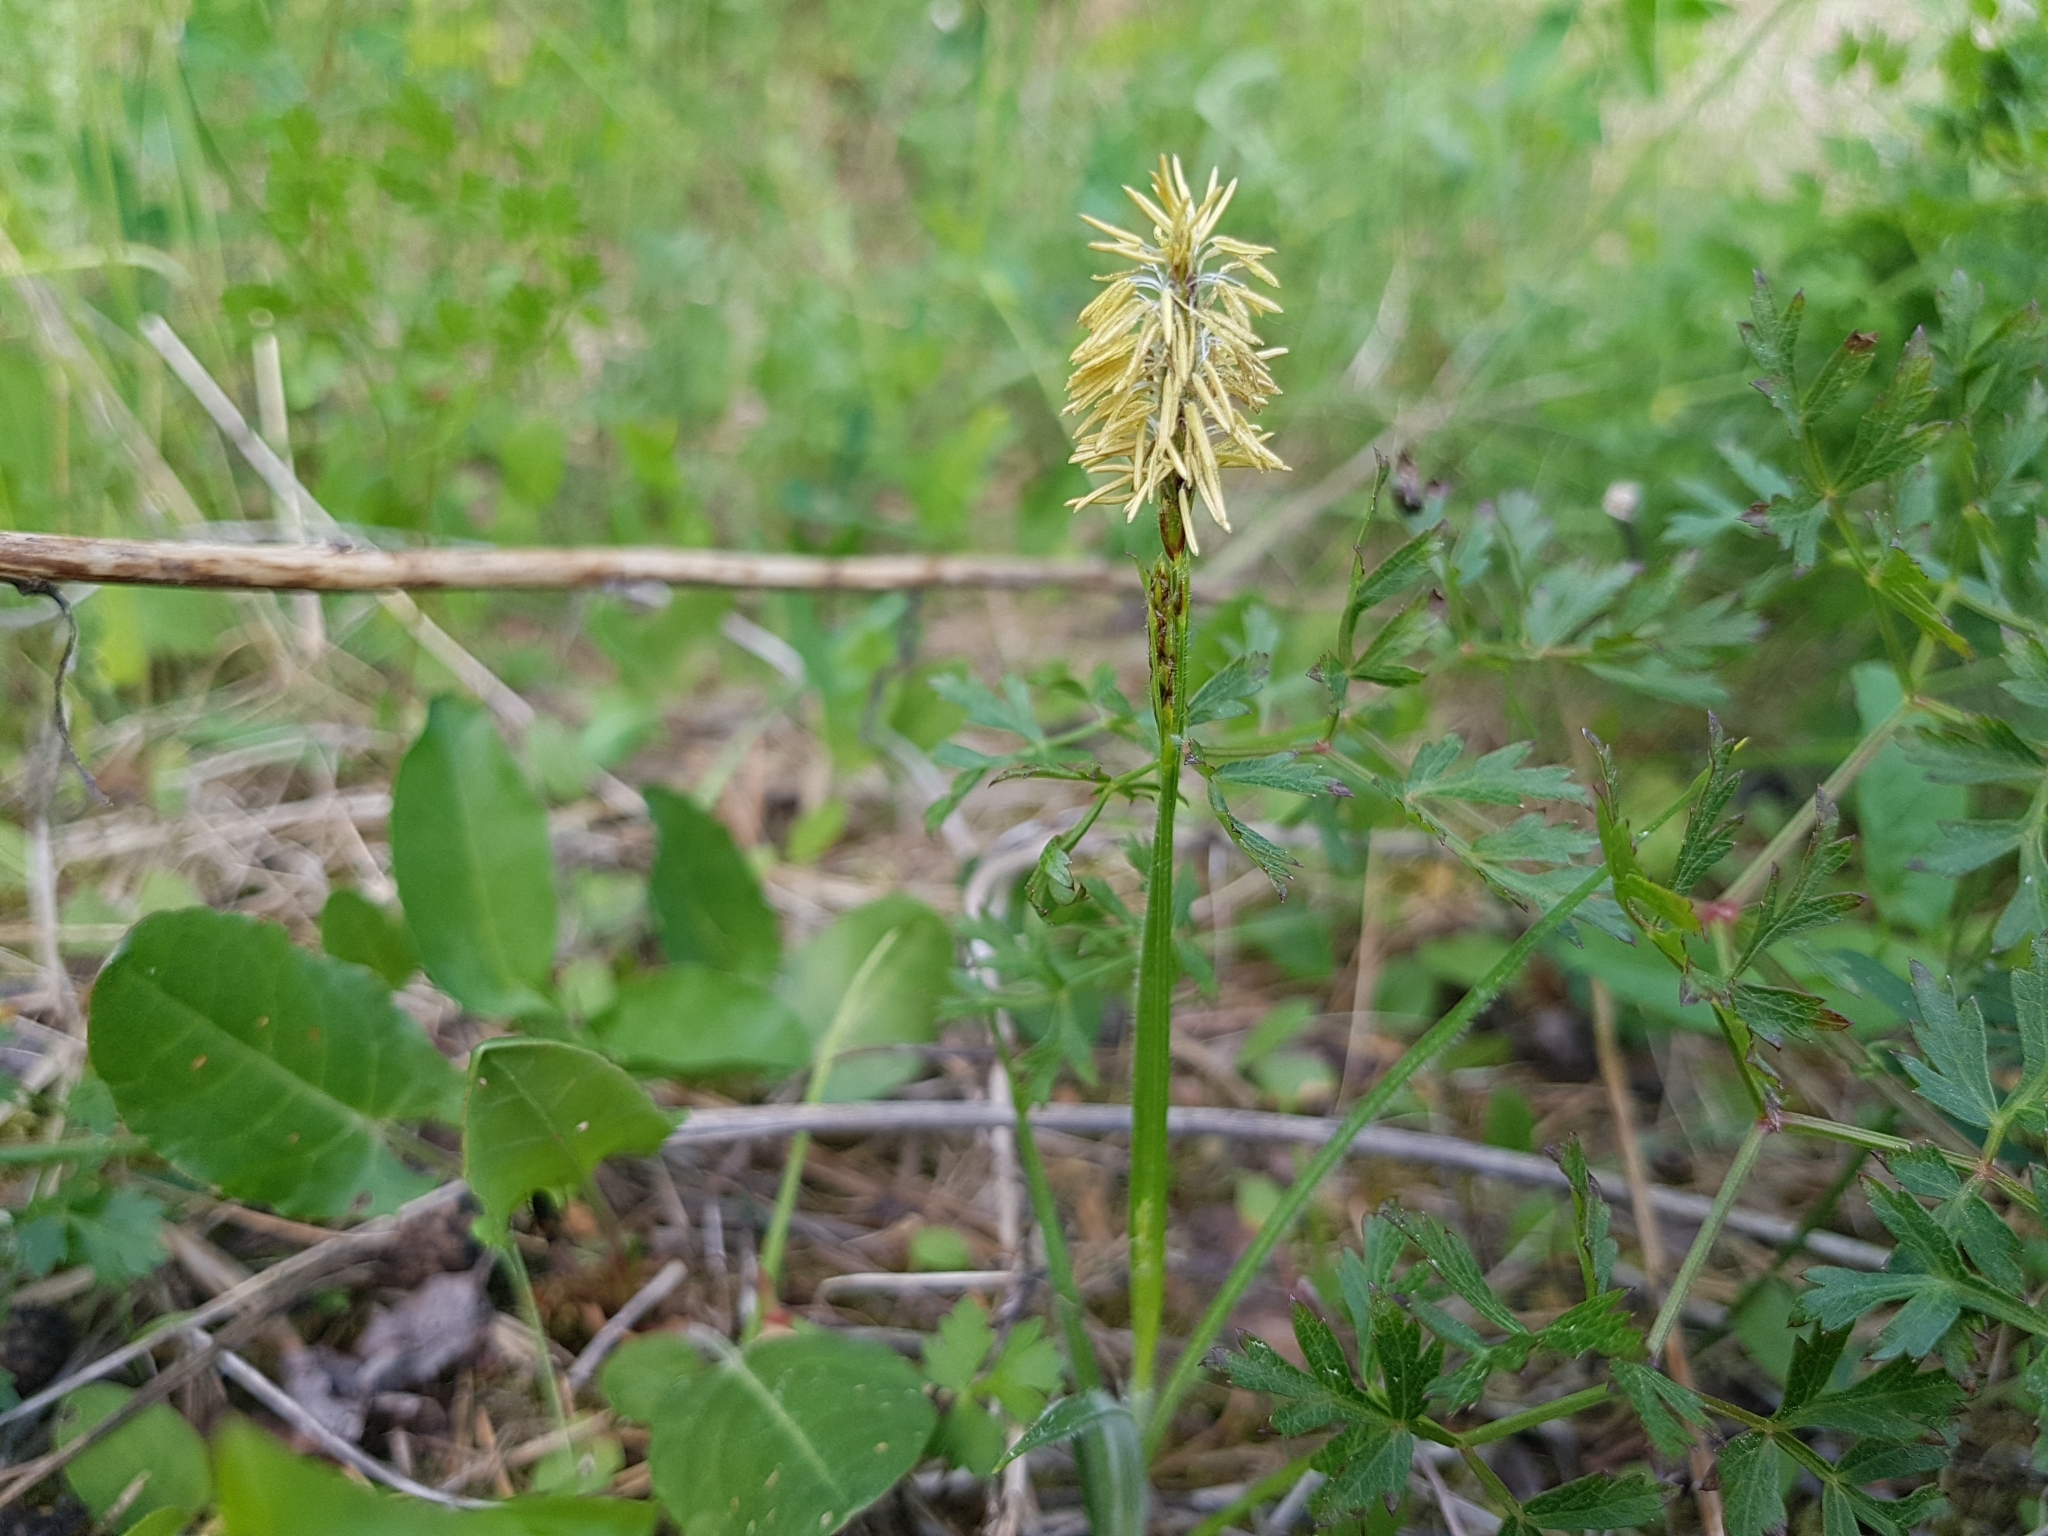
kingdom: Plantae
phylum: Tracheophyta
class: Liliopsida
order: Poales
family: Cyperaceae
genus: Carex
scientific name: Carex hirta
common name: Hairy sedge
